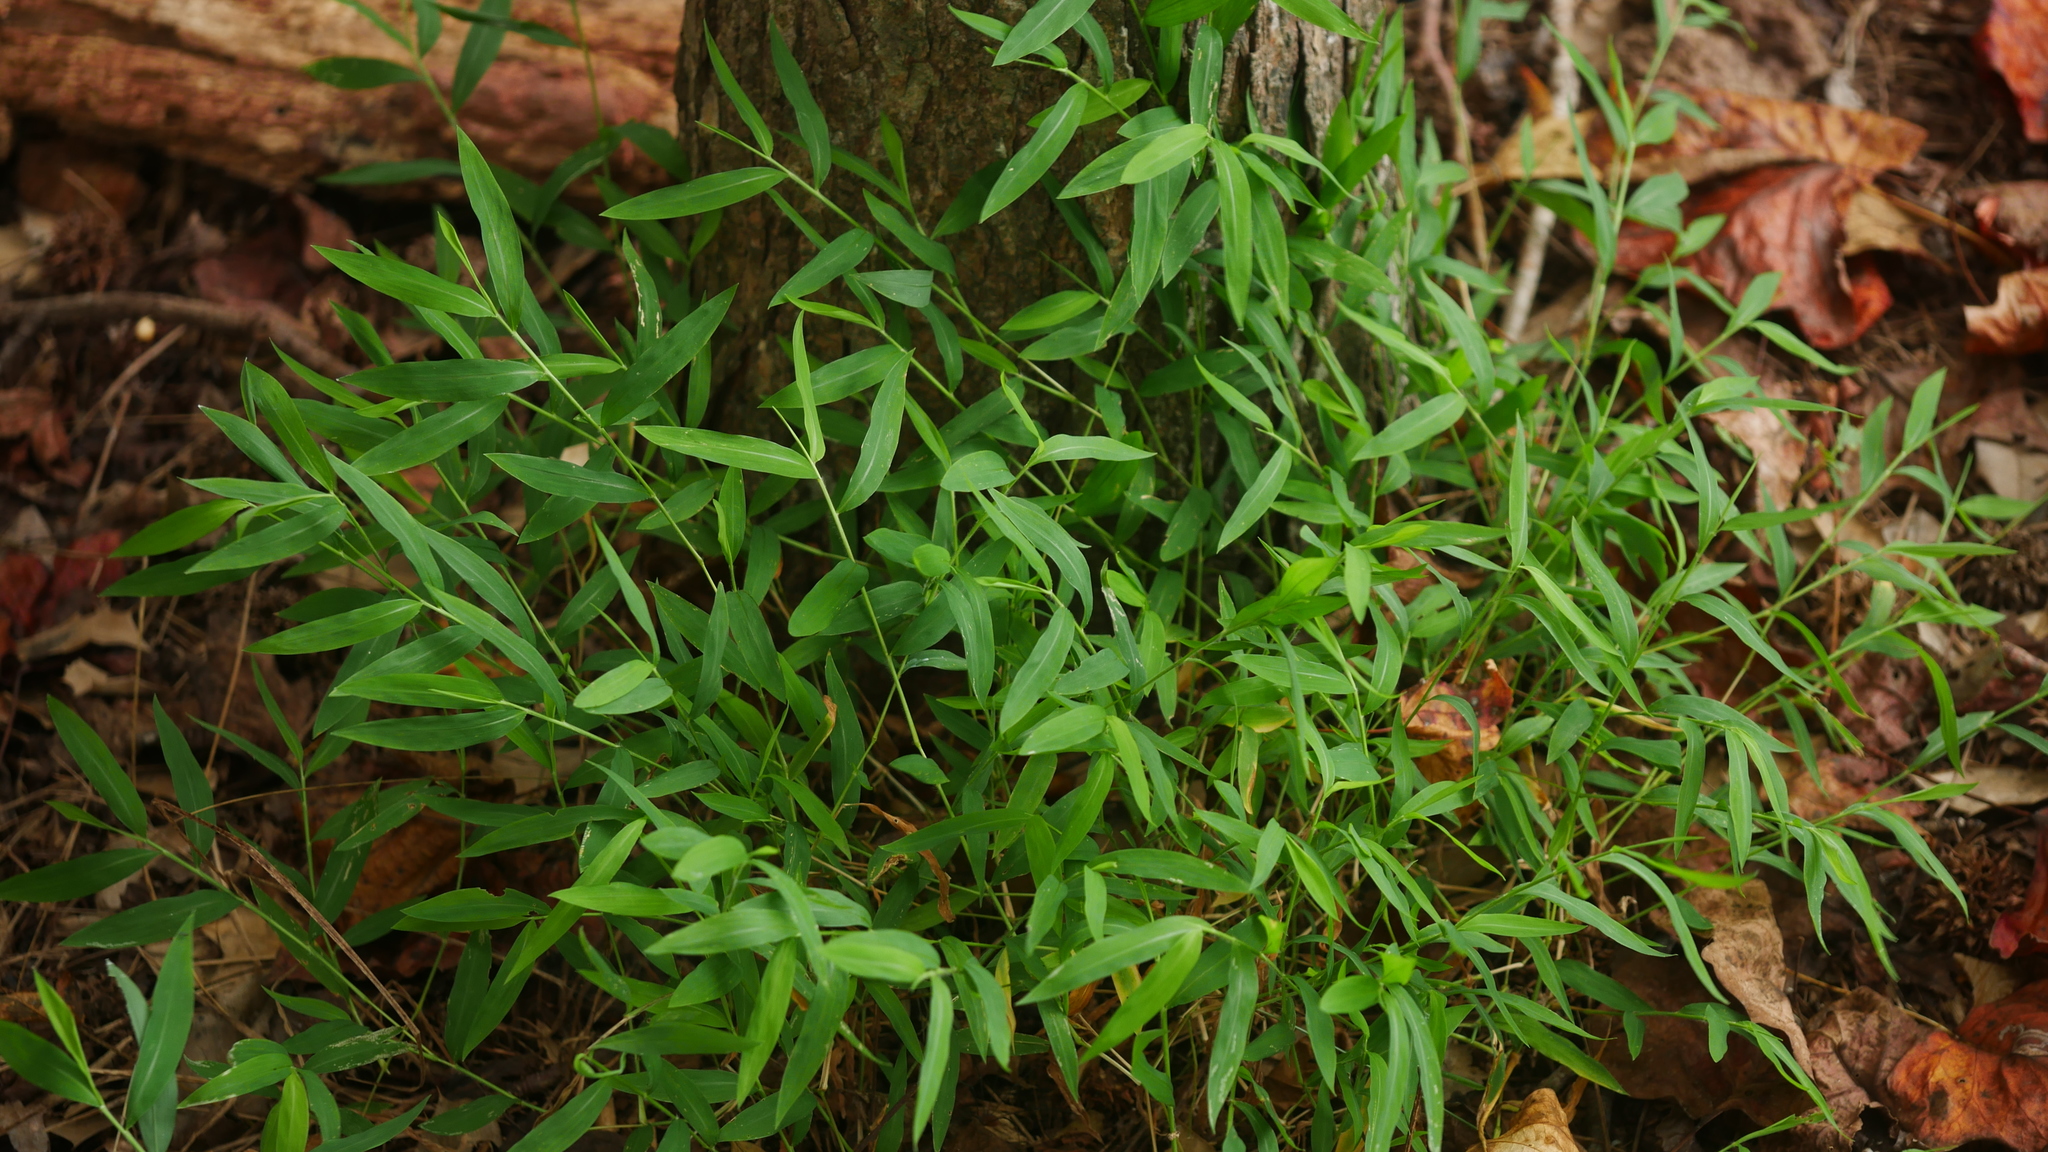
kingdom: Plantae
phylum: Tracheophyta
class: Liliopsida
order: Poales
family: Poaceae
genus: Microstegium
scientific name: Microstegium vimineum
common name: Japanese stiltgrass
